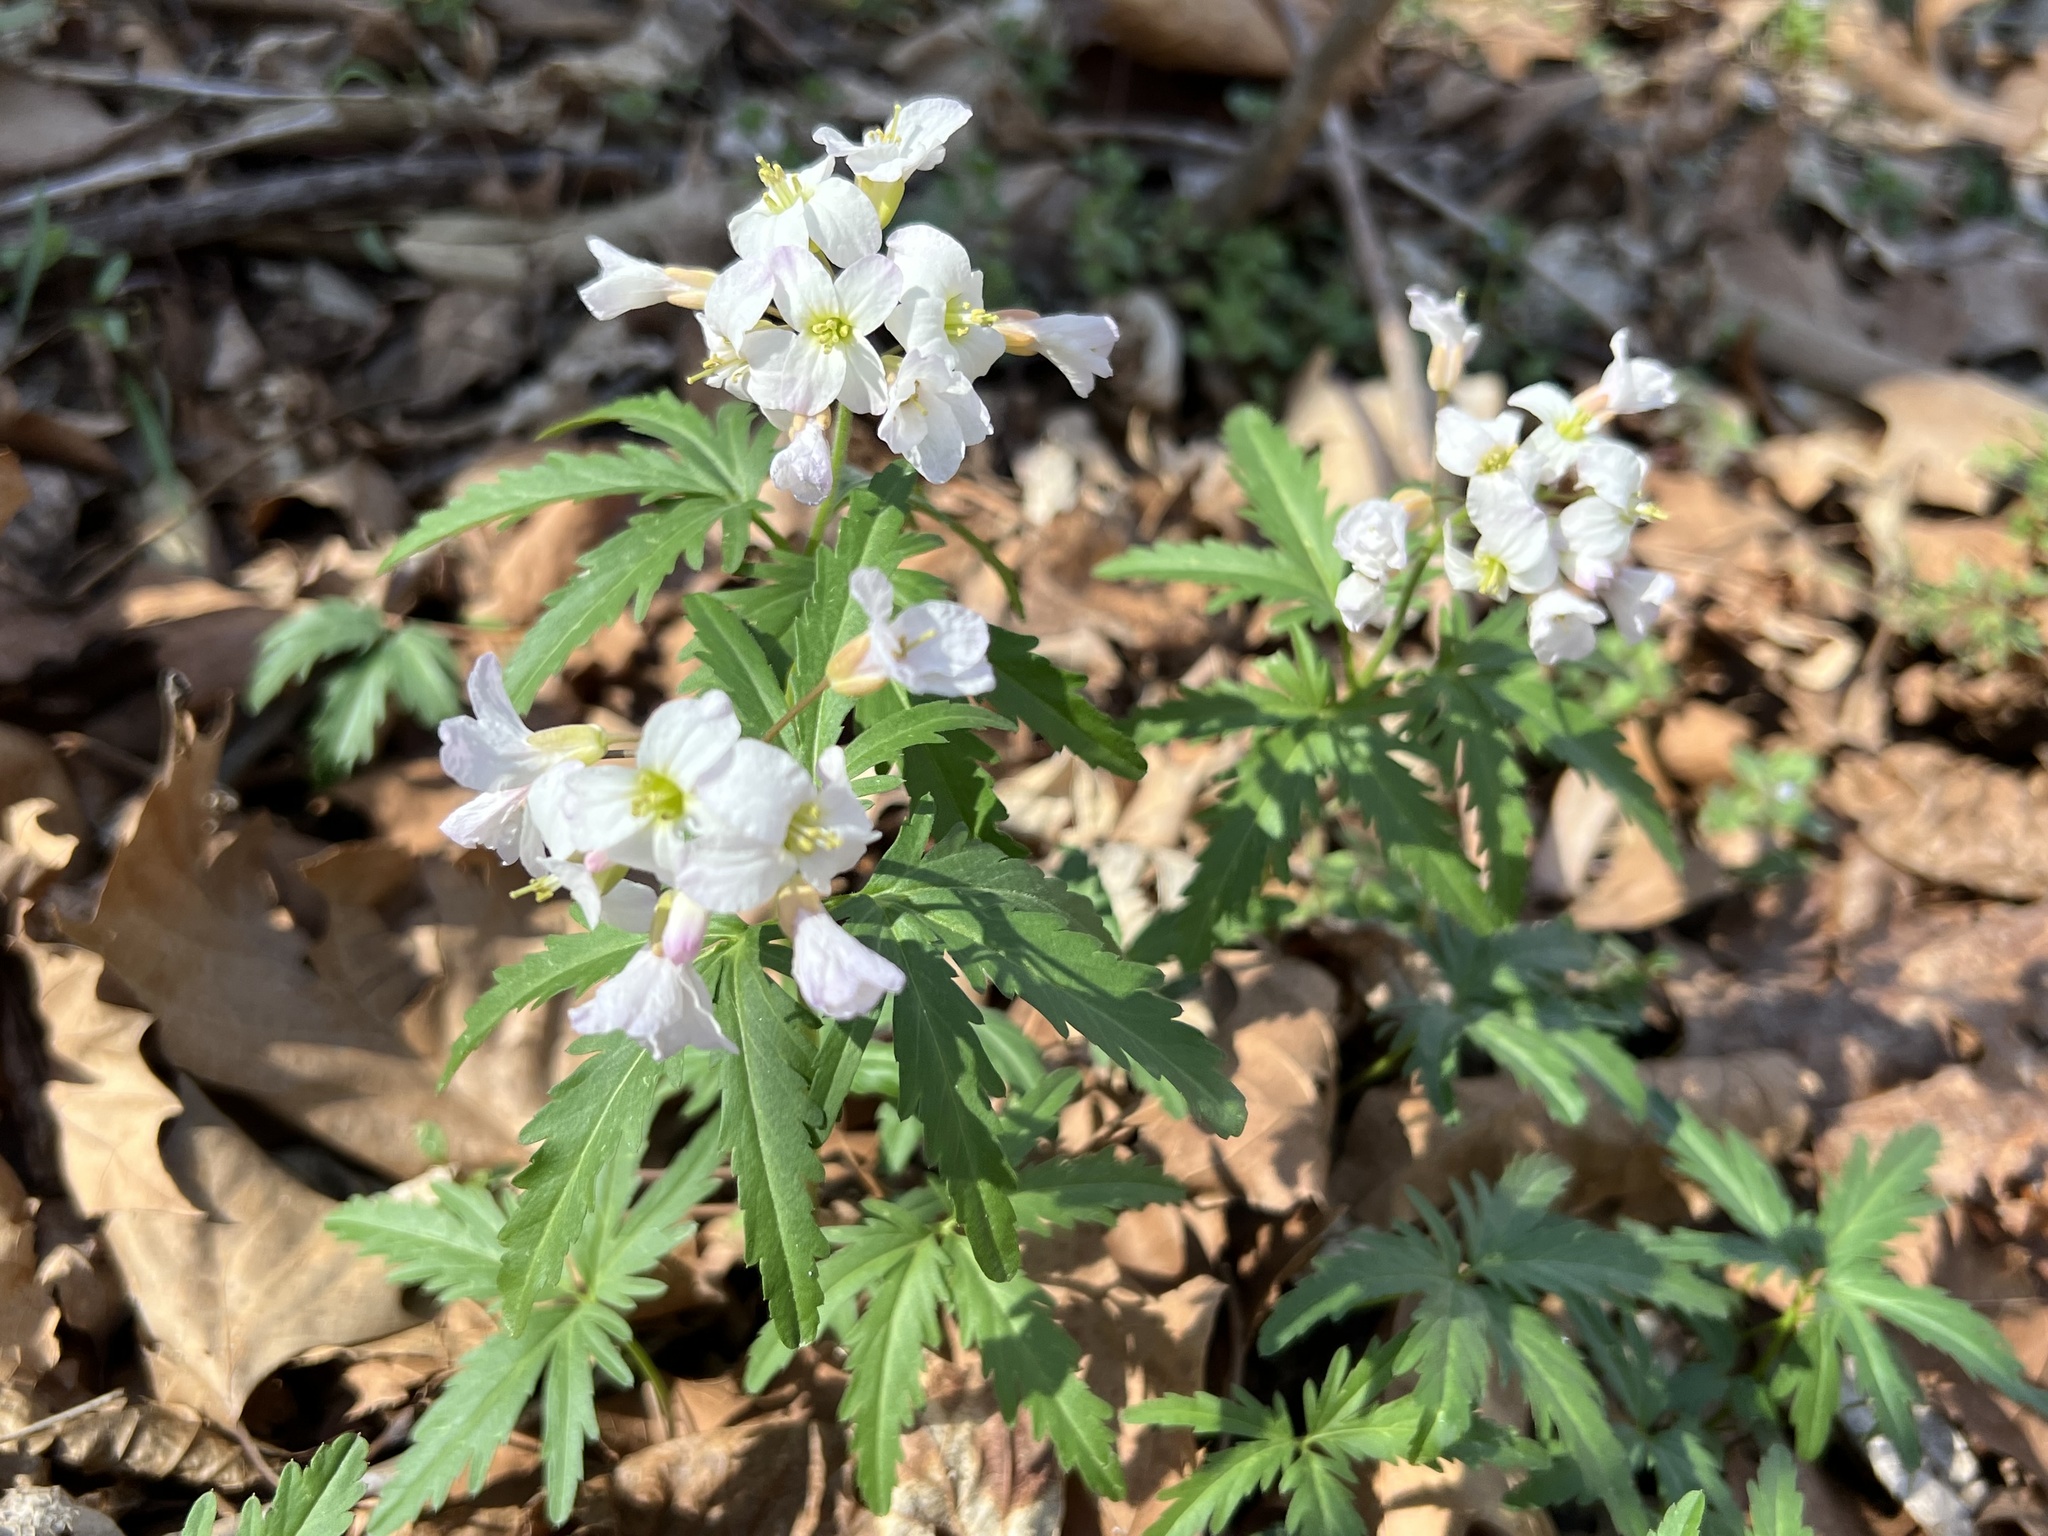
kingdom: Plantae
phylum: Tracheophyta
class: Magnoliopsida
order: Brassicales
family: Brassicaceae
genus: Cardamine
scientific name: Cardamine concatenata
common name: Cut-leaf toothcup
